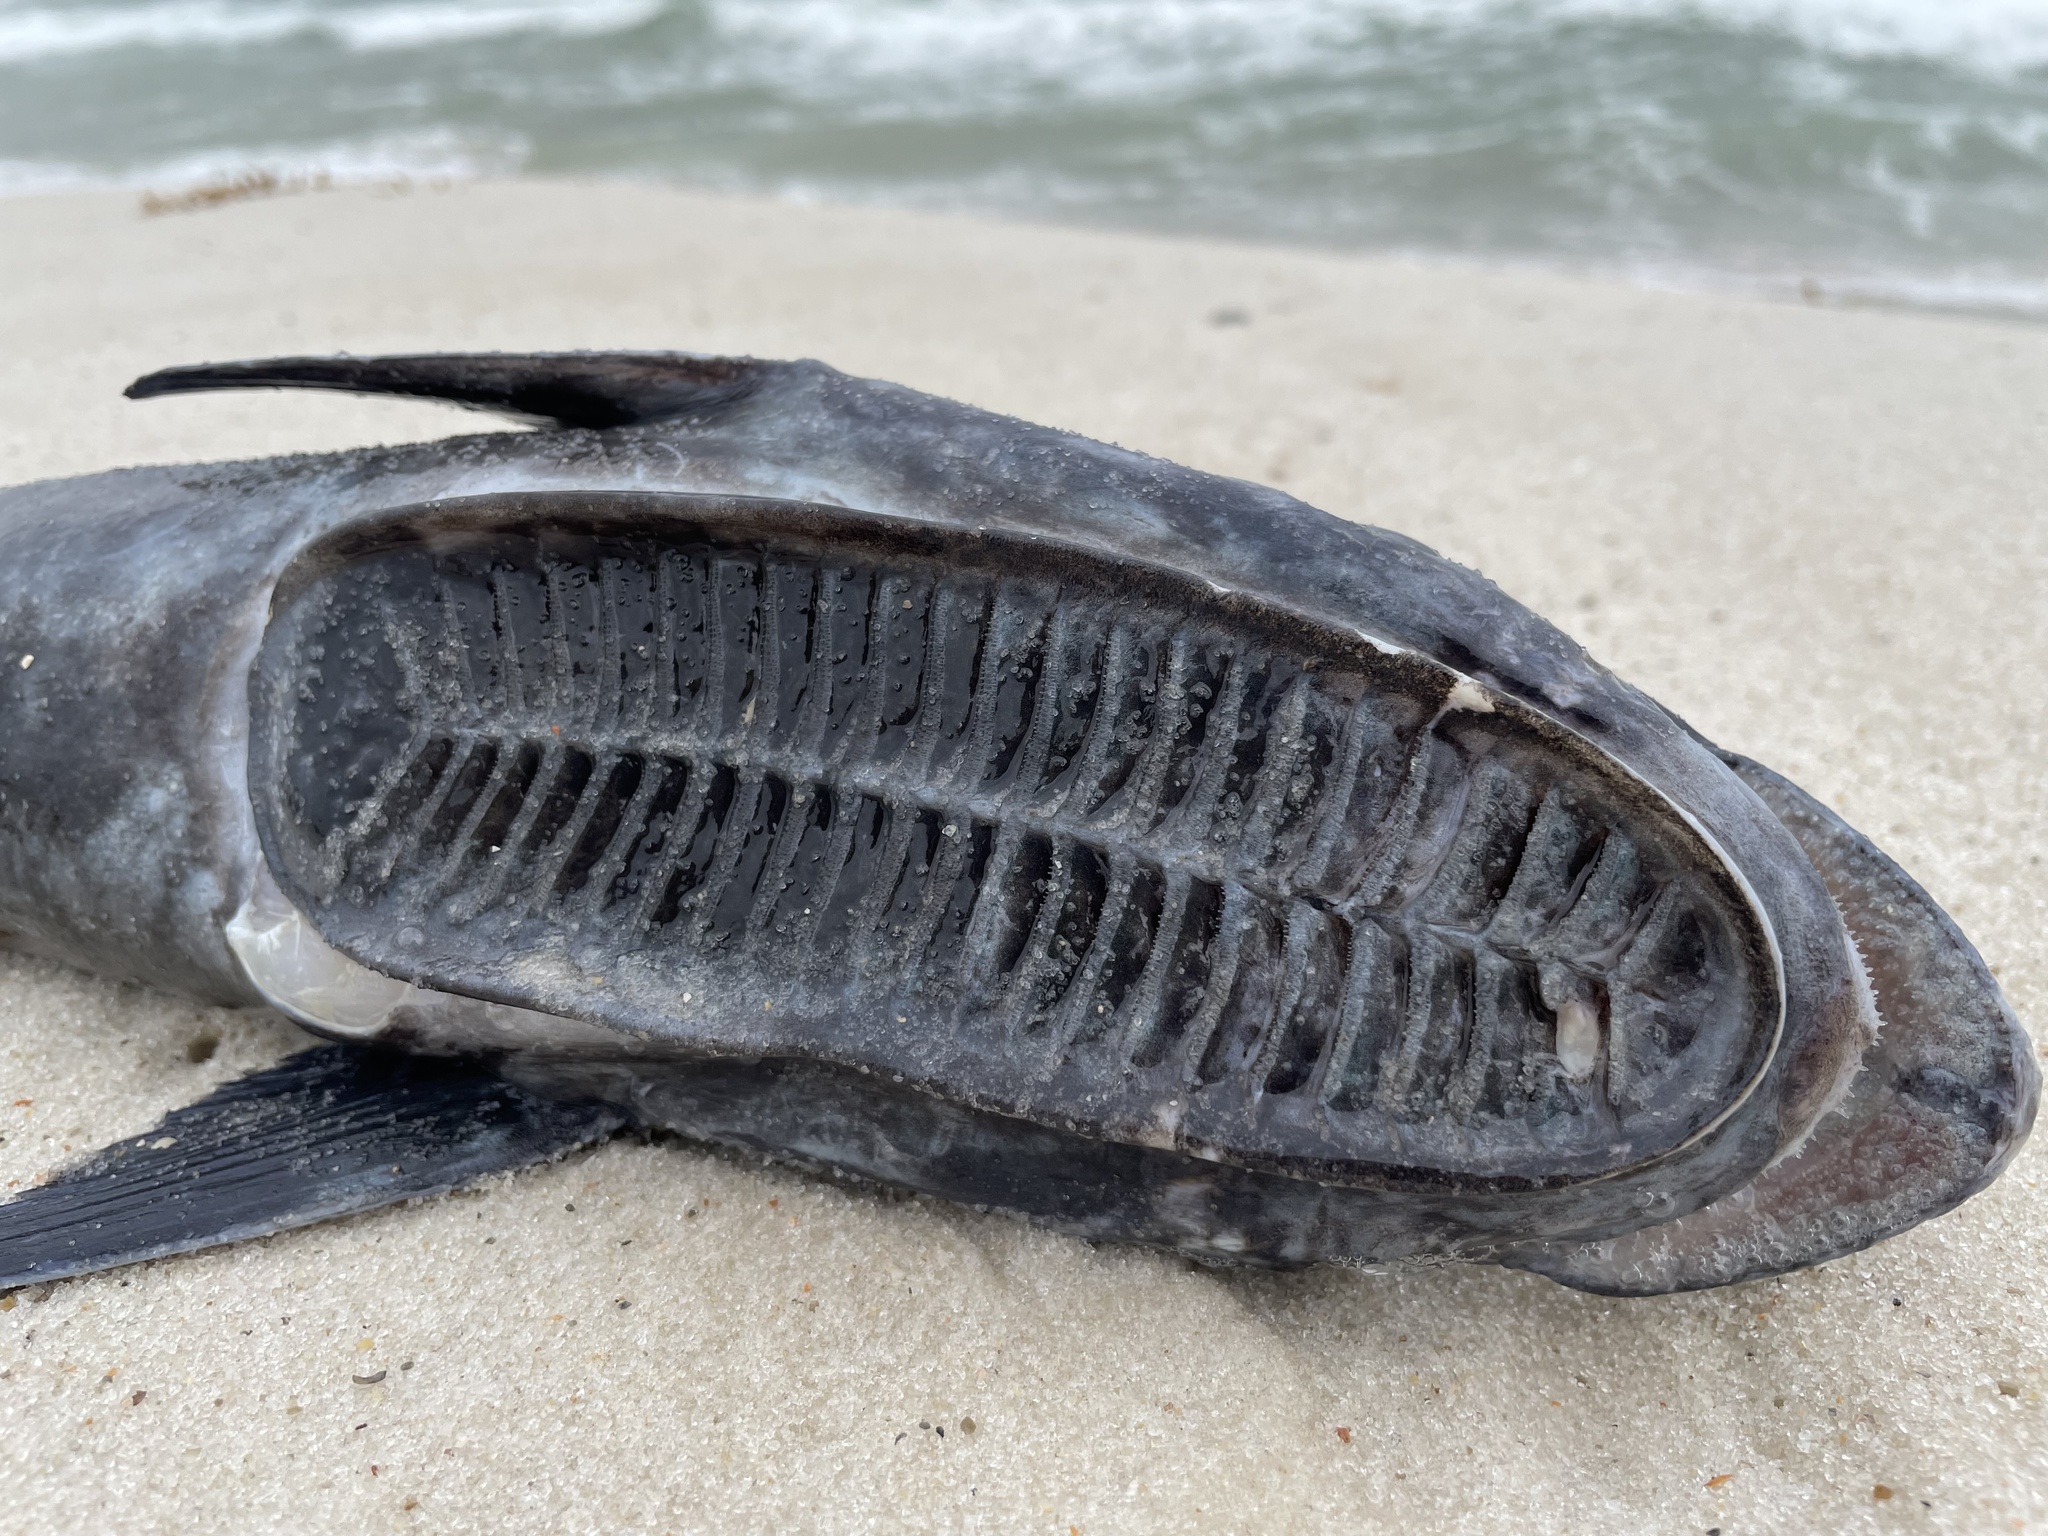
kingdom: Animalia
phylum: Chordata
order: Perciformes
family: Echeneidae
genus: Echeneis
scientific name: Echeneis naucrates
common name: Sharksucker
